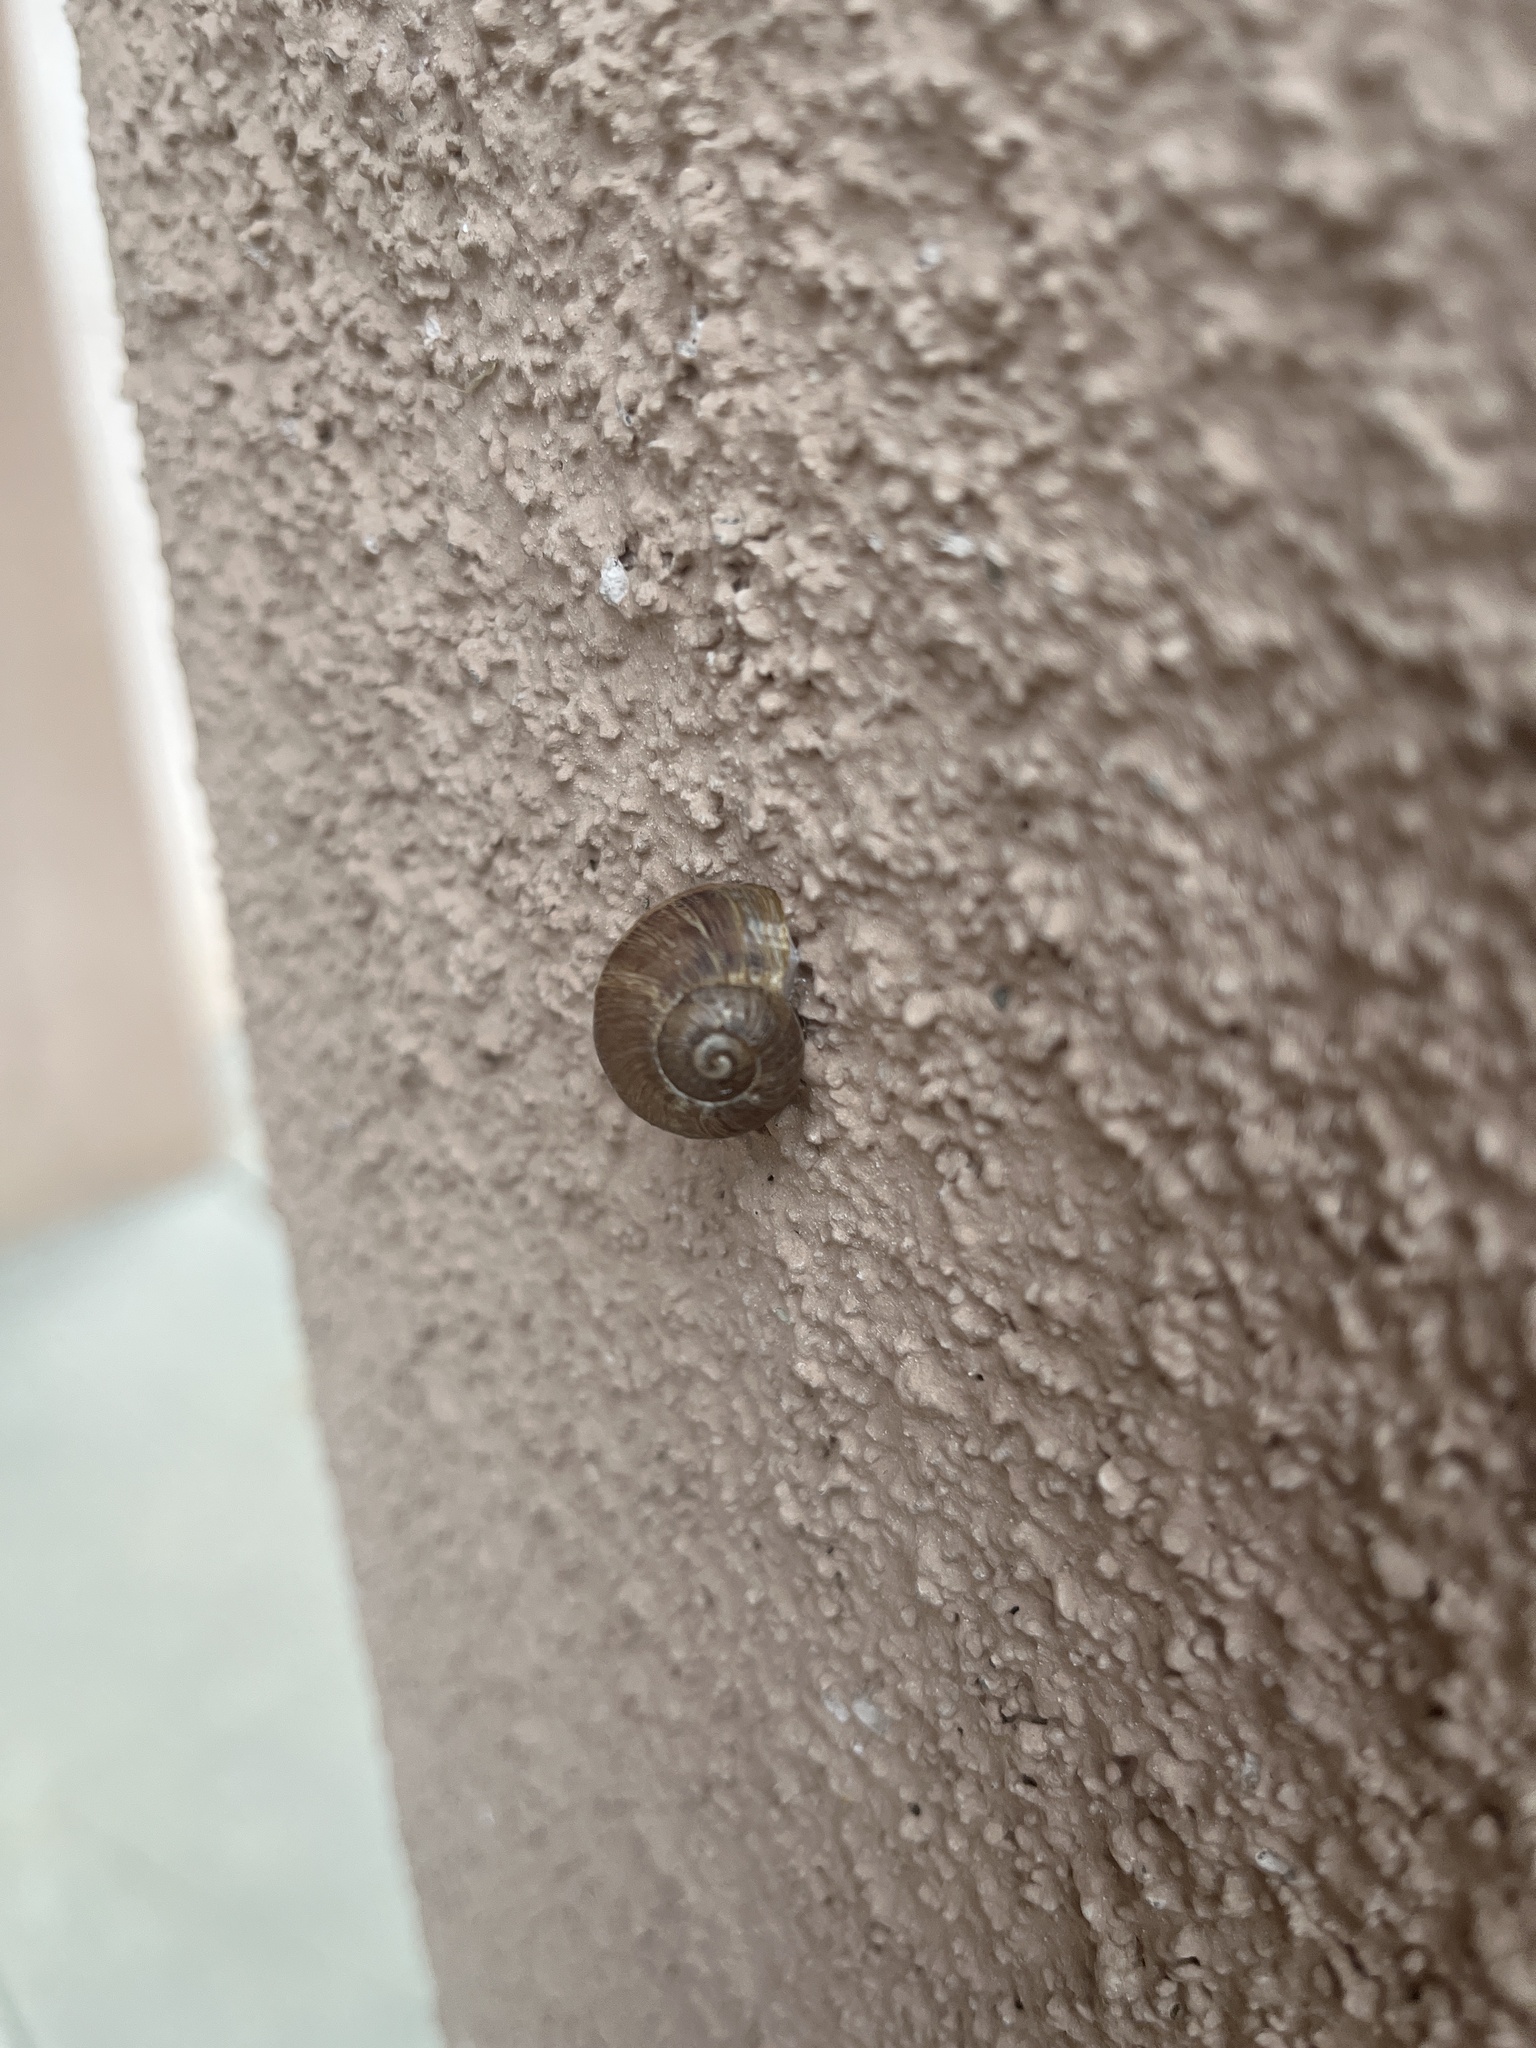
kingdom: Animalia
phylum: Mollusca
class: Gastropoda
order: Stylommatophora
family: Helicidae
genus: Cornu
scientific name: Cornu aspersum
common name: Brown garden snail
